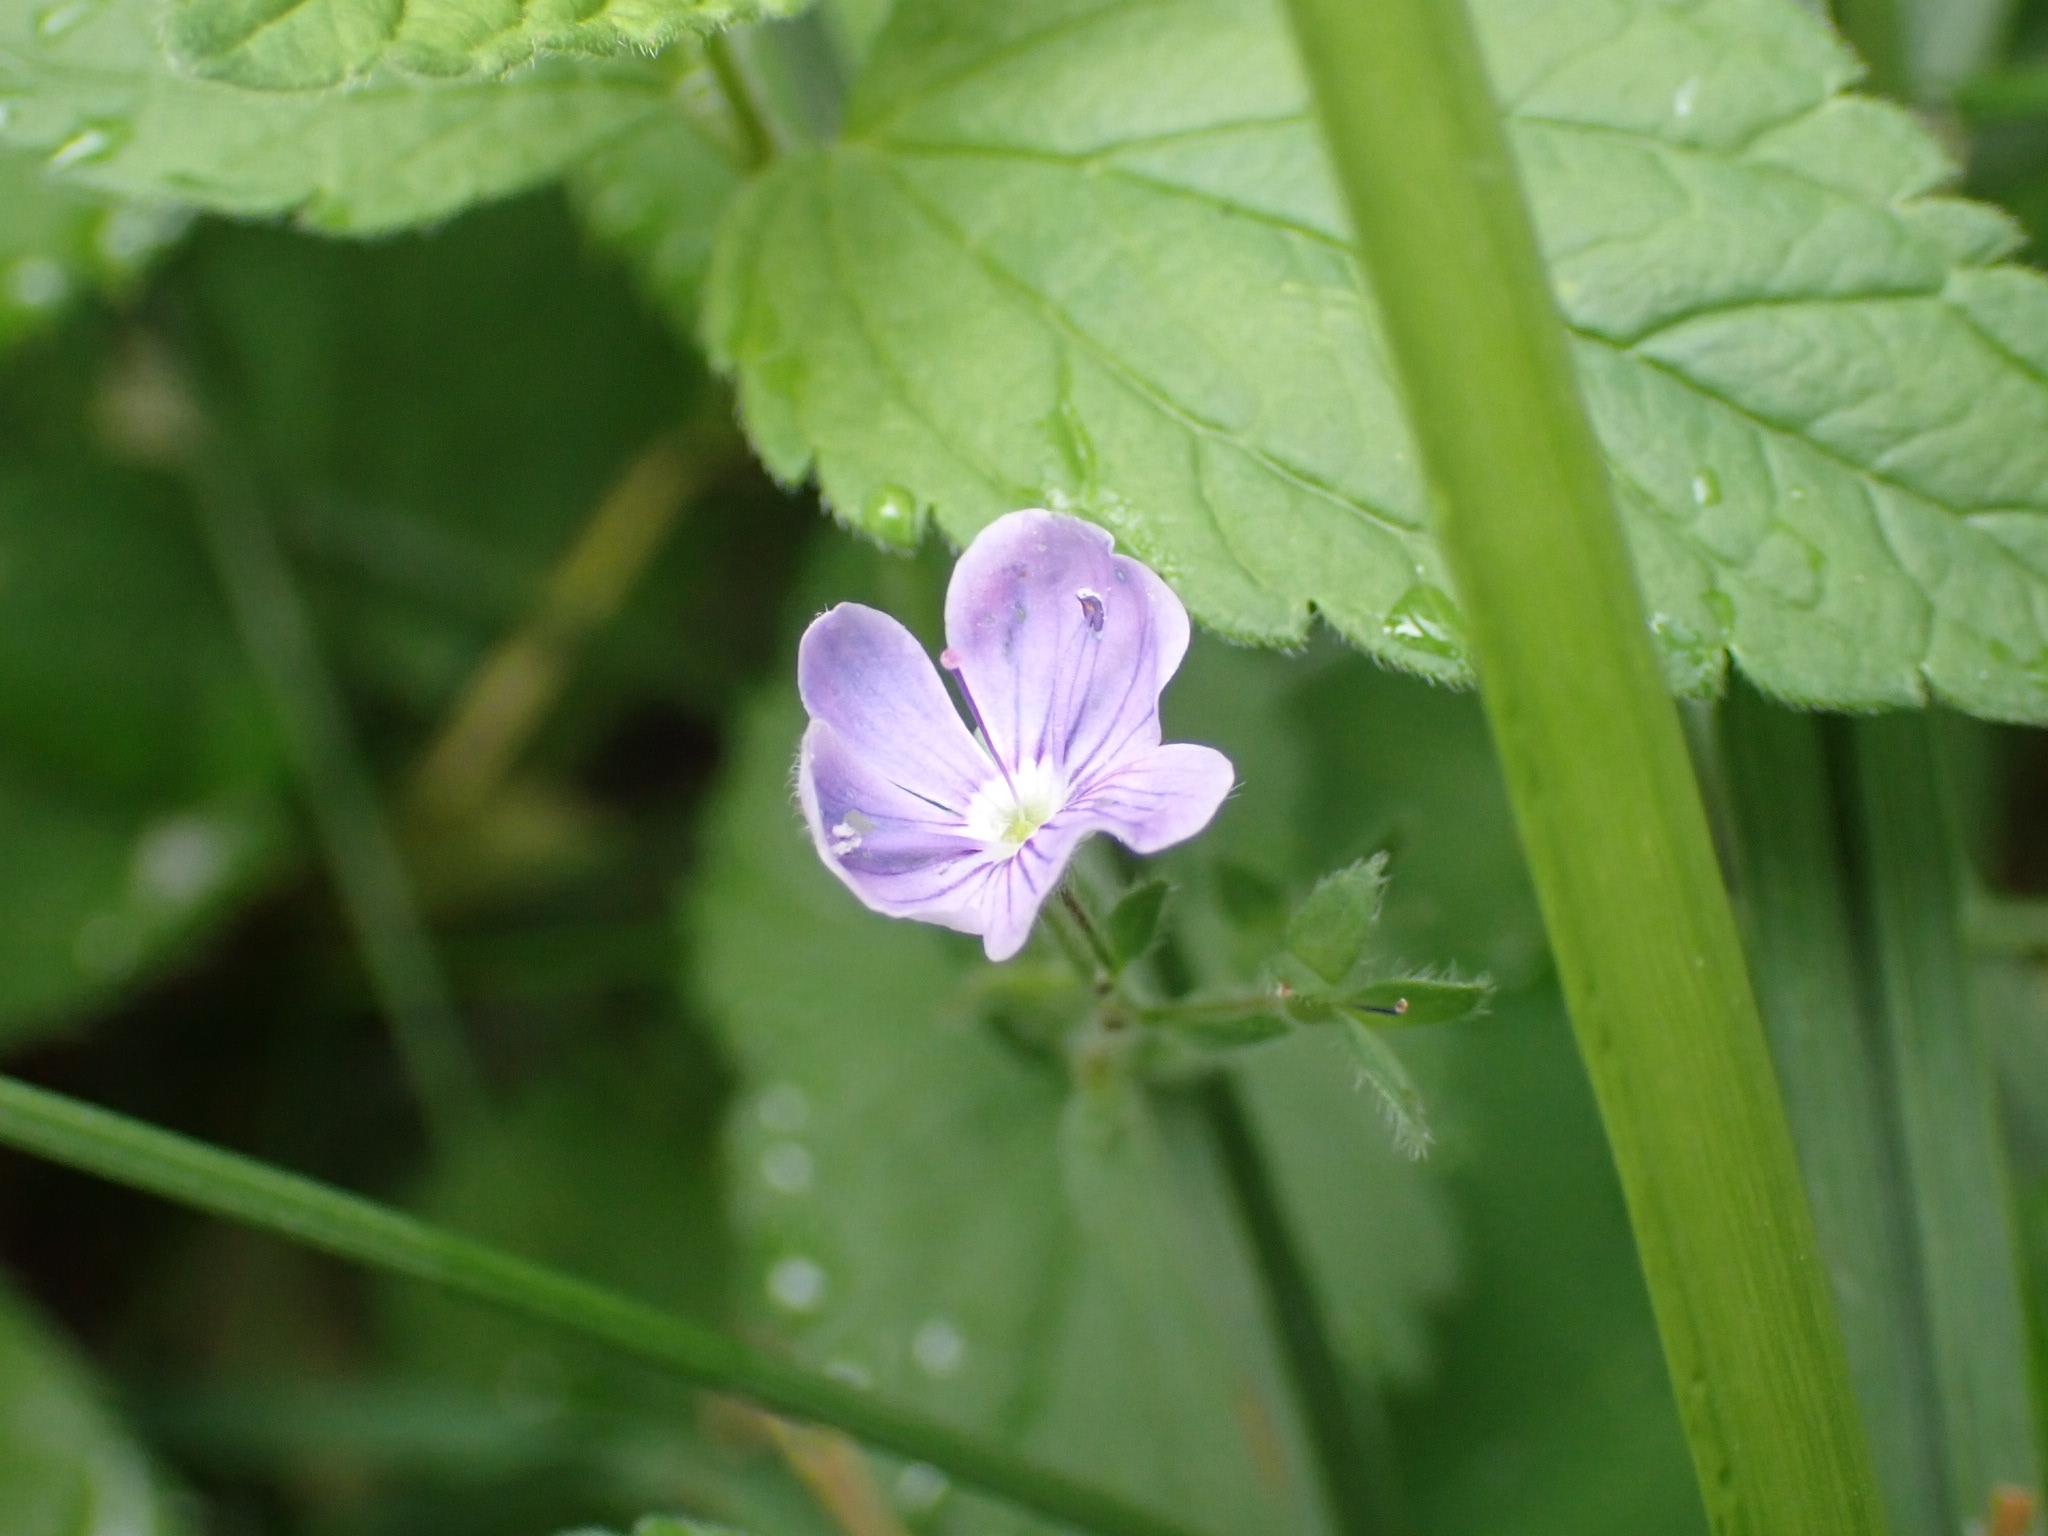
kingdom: Plantae
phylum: Tracheophyta
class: Magnoliopsida
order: Lamiales
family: Plantaginaceae
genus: Veronica
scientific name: Veronica chamaedrys
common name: Germander speedwell
